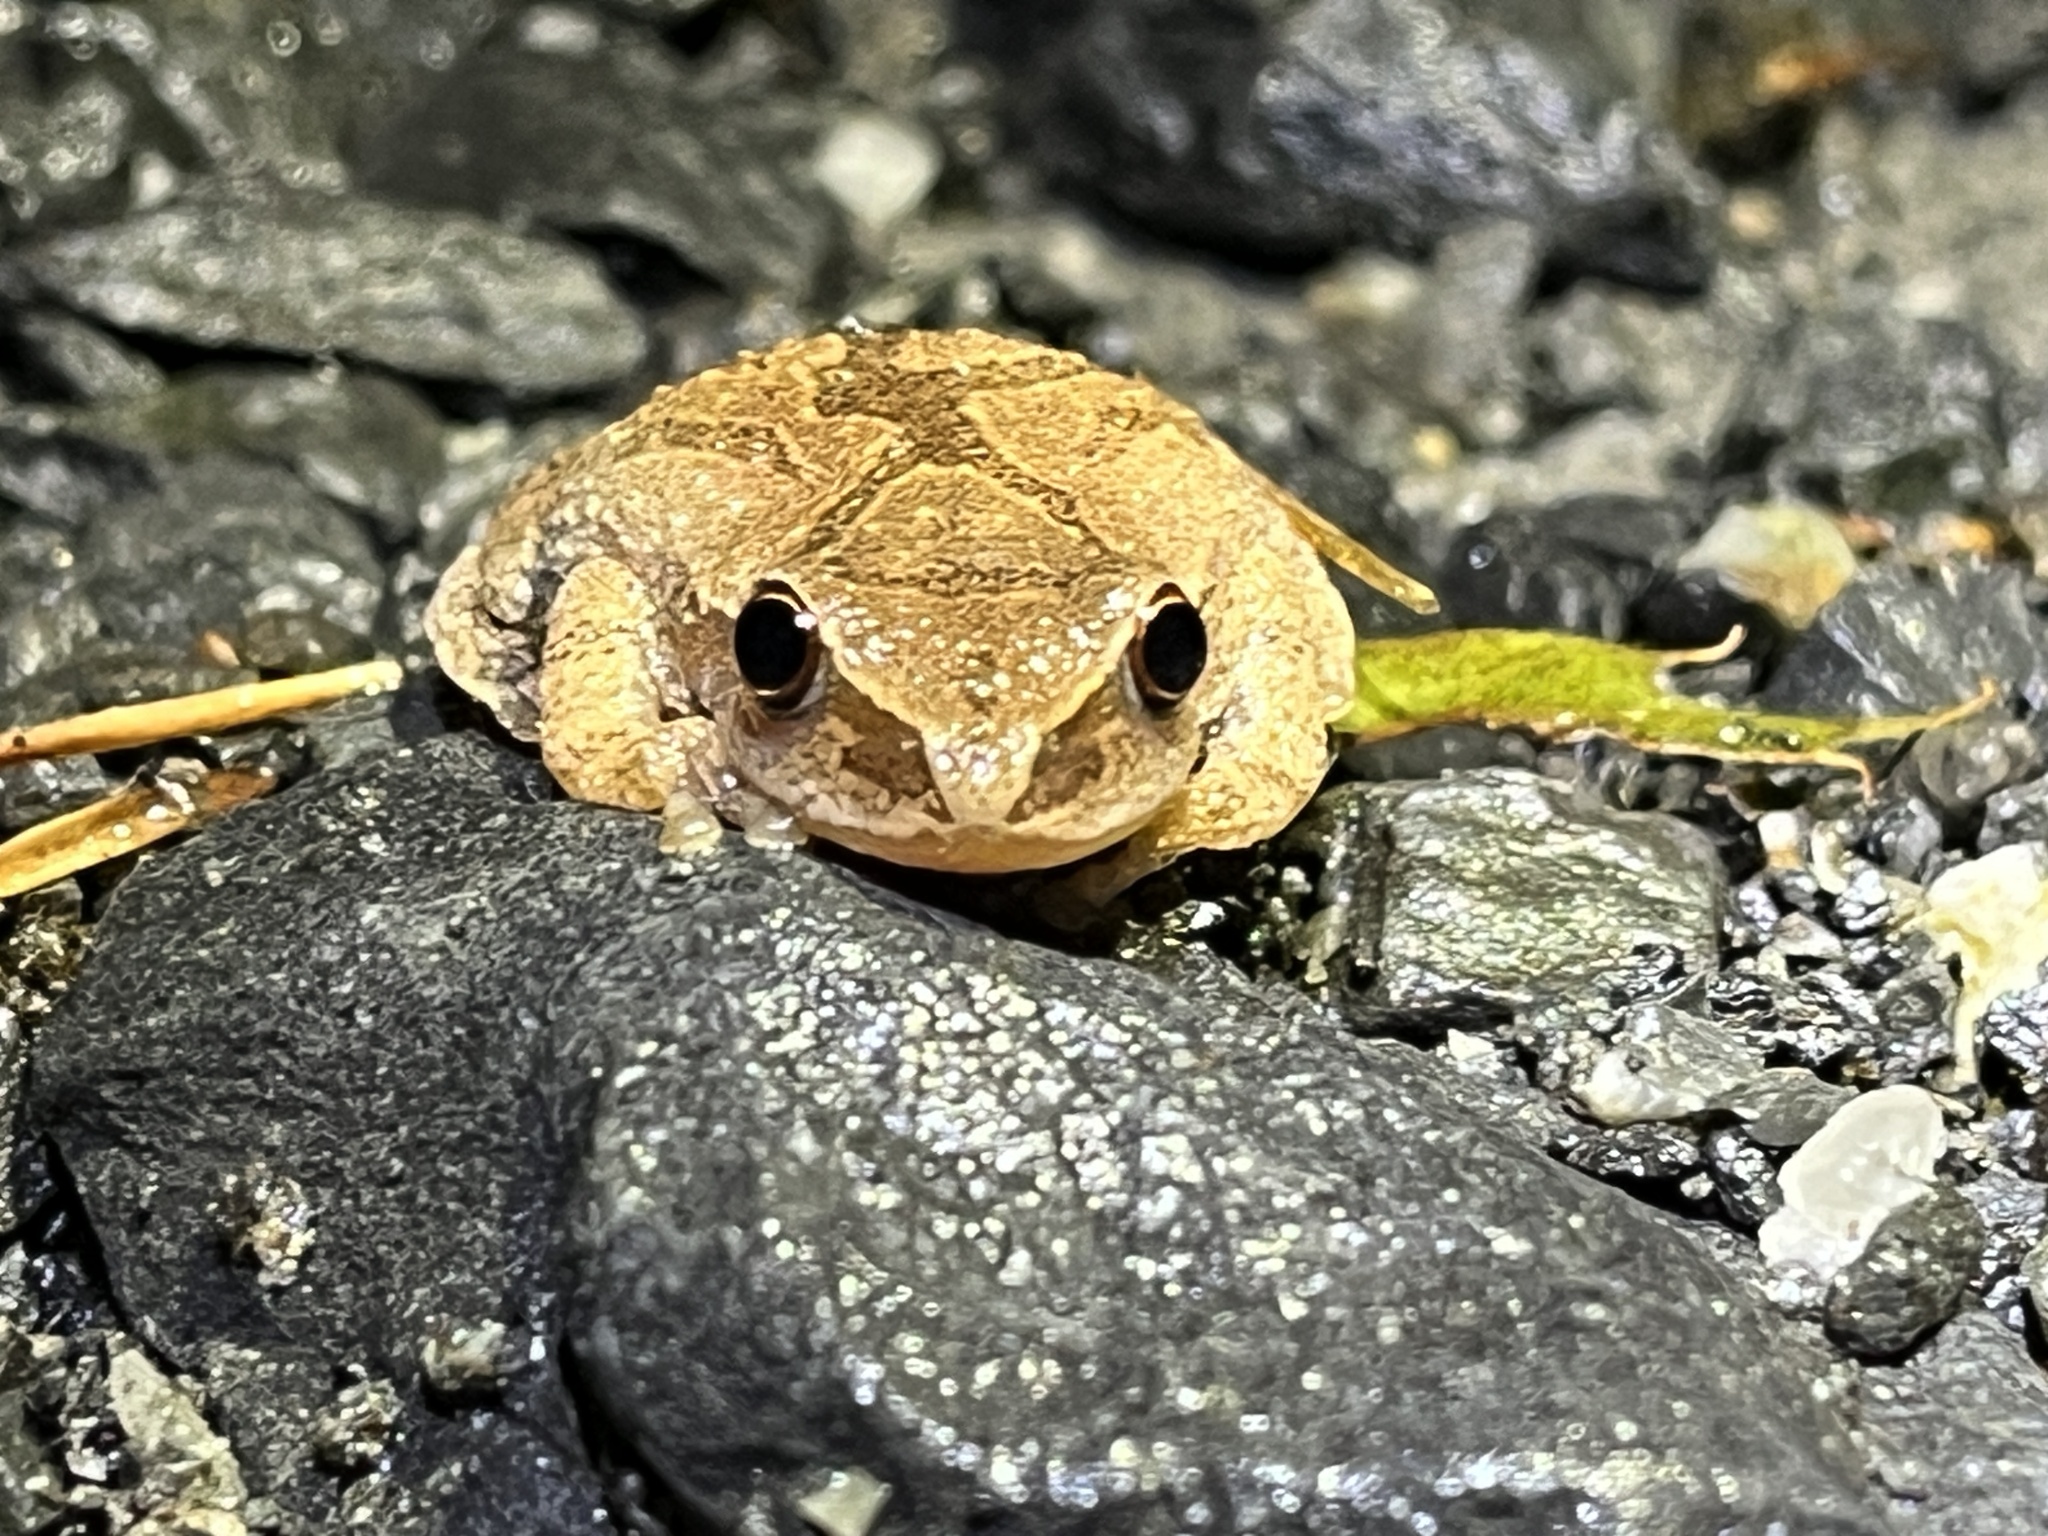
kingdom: Animalia
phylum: Chordata
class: Amphibia
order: Anura
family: Hylidae
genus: Pseudacris
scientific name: Pseudacris crucifer
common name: Spring peeper
